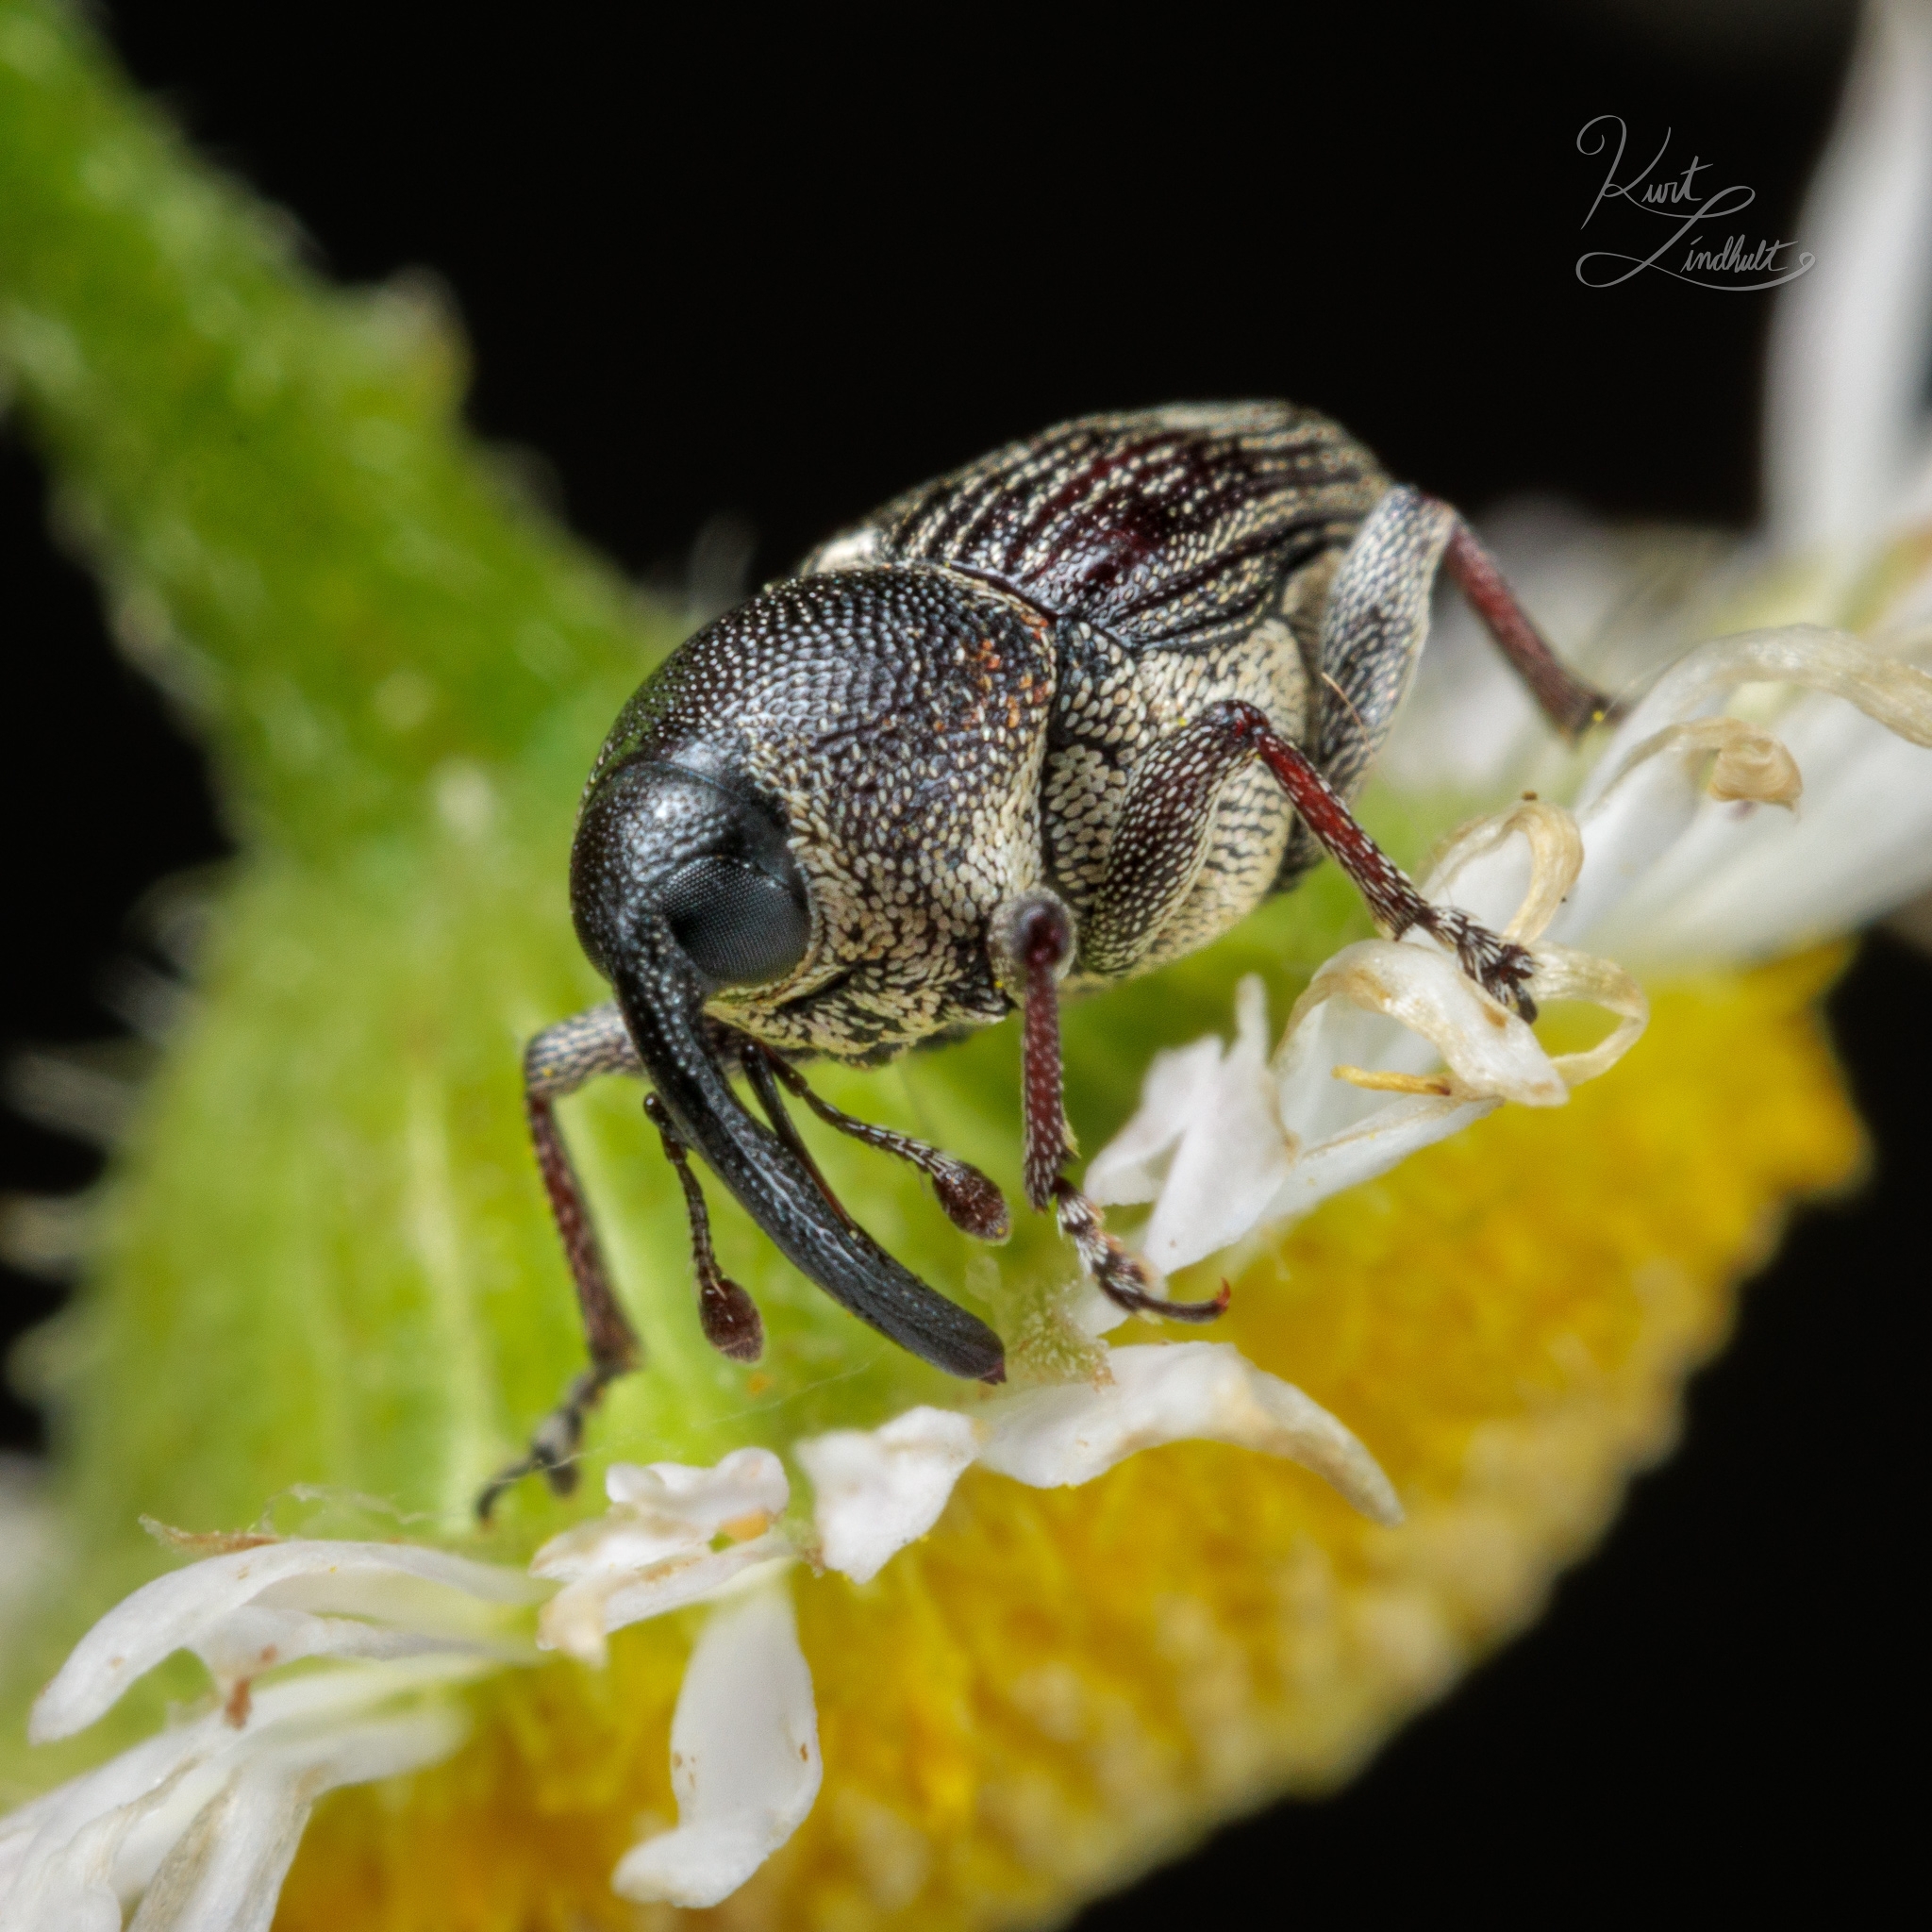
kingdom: Animalia
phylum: Arthropoda
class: Insecta
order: Coleoptera
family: Curculionidae
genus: Odontocorynus
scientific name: Odontocorynus umbellae
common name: Daisy flower weevil
